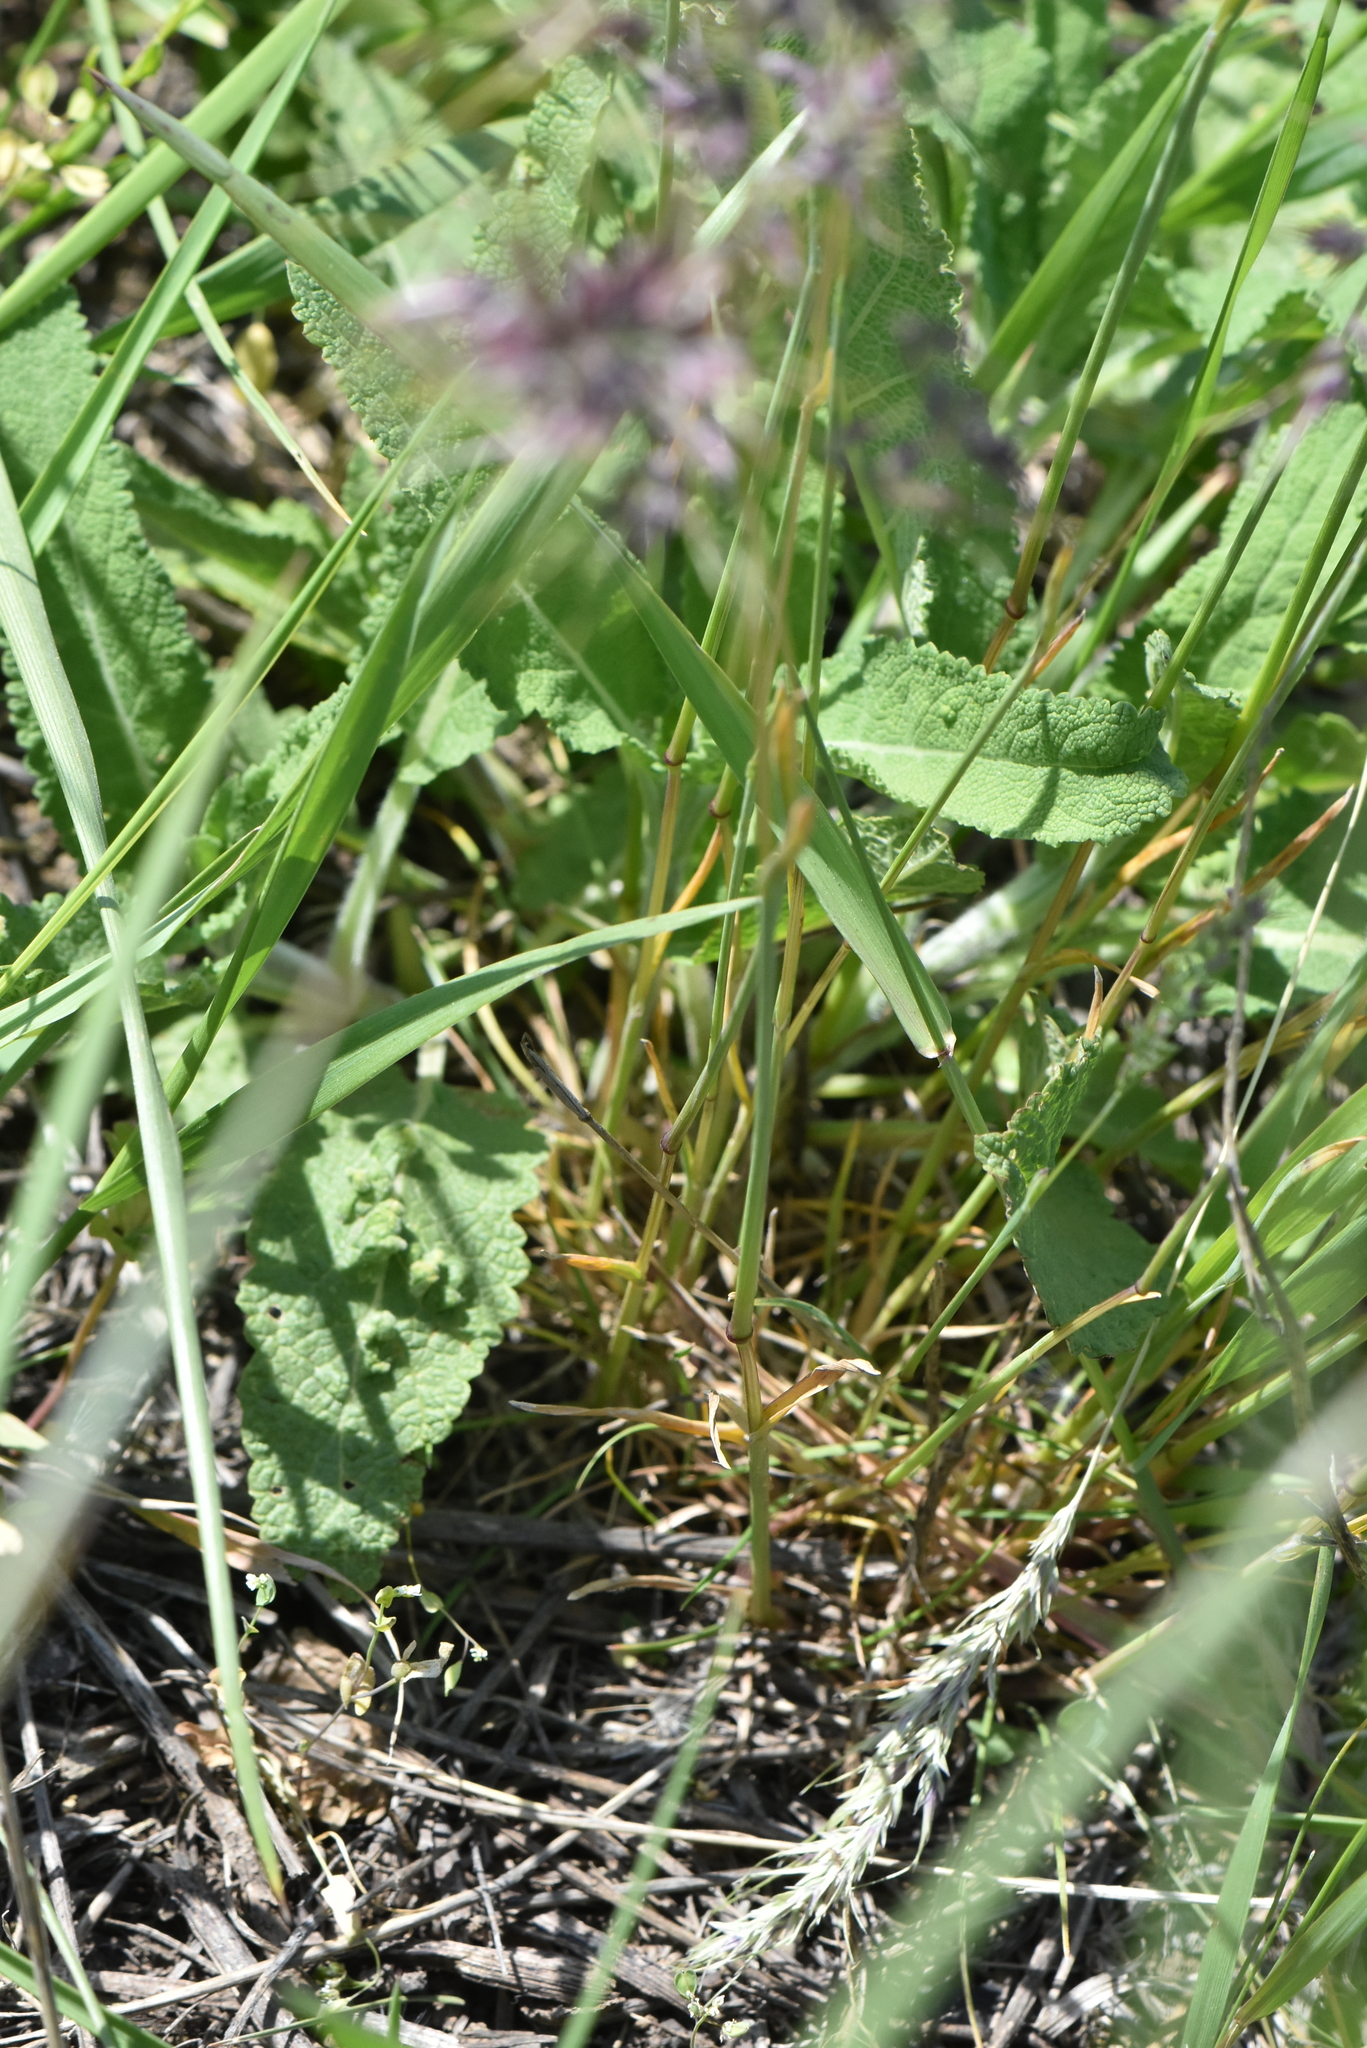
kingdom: Plantae
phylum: Tracheophyta
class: Liliopsida
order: Poales
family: Poaceae
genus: Poa
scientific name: Poa bulbosa
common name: Bulbous bluegrass
